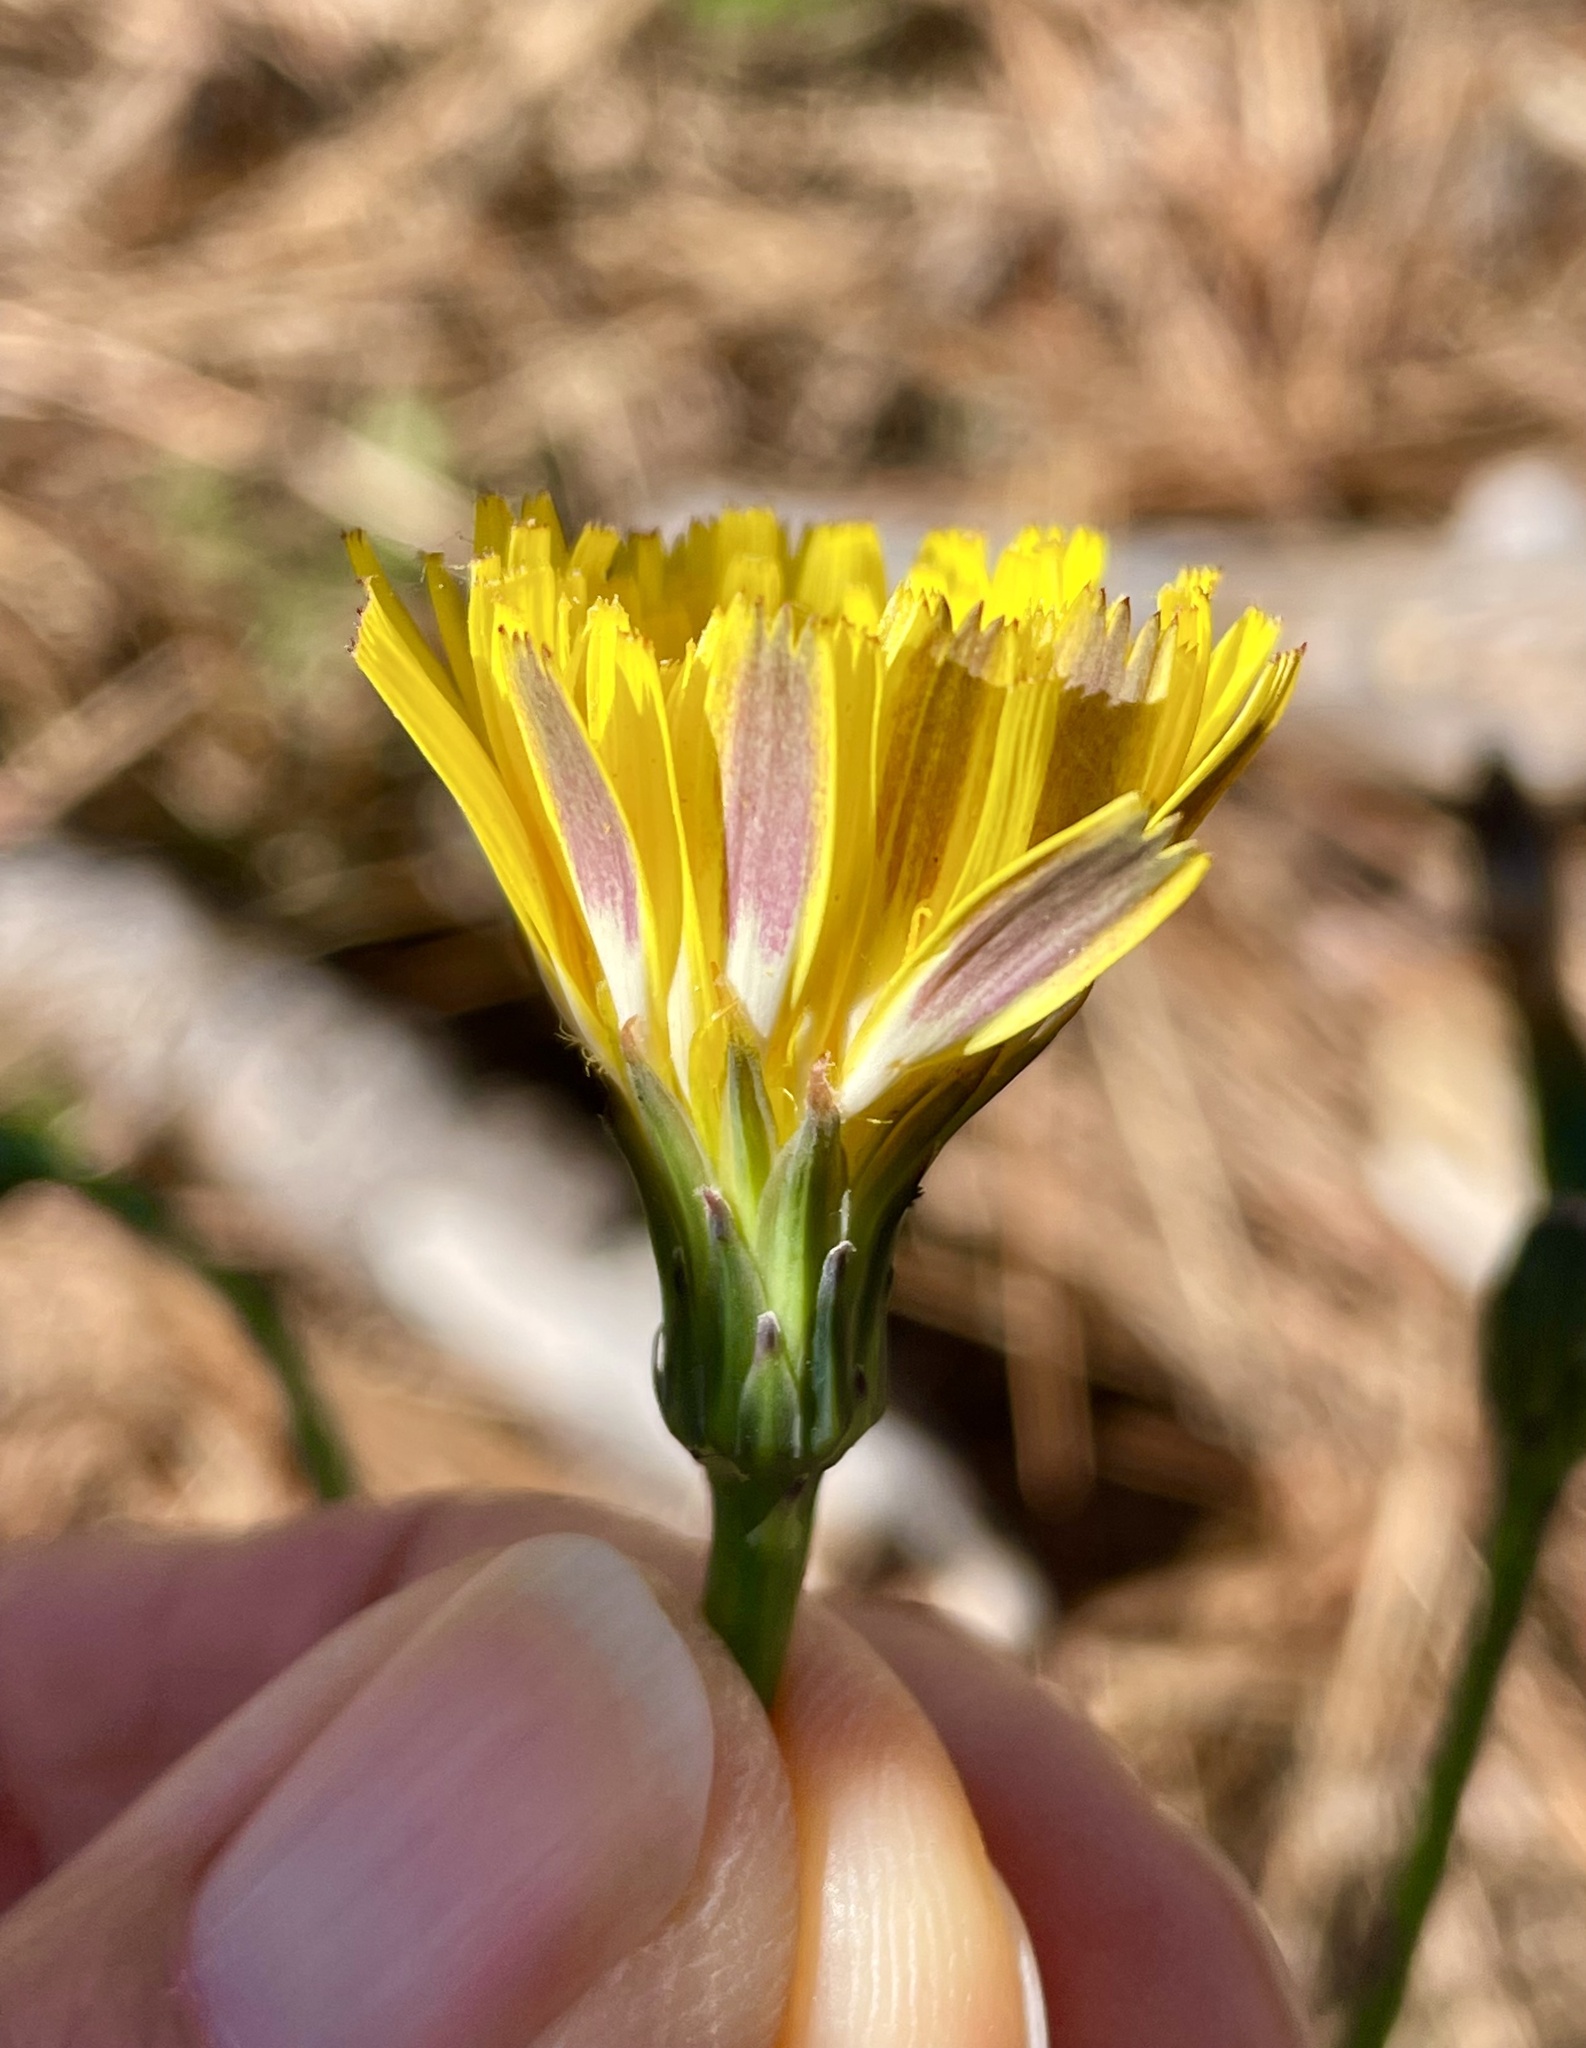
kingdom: Plantae
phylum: Tracheophyta
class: Magnoliopsida
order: Asterales
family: Asteraceae
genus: Hypochaeris
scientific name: Hypochaeris radicata
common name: Flatweed
